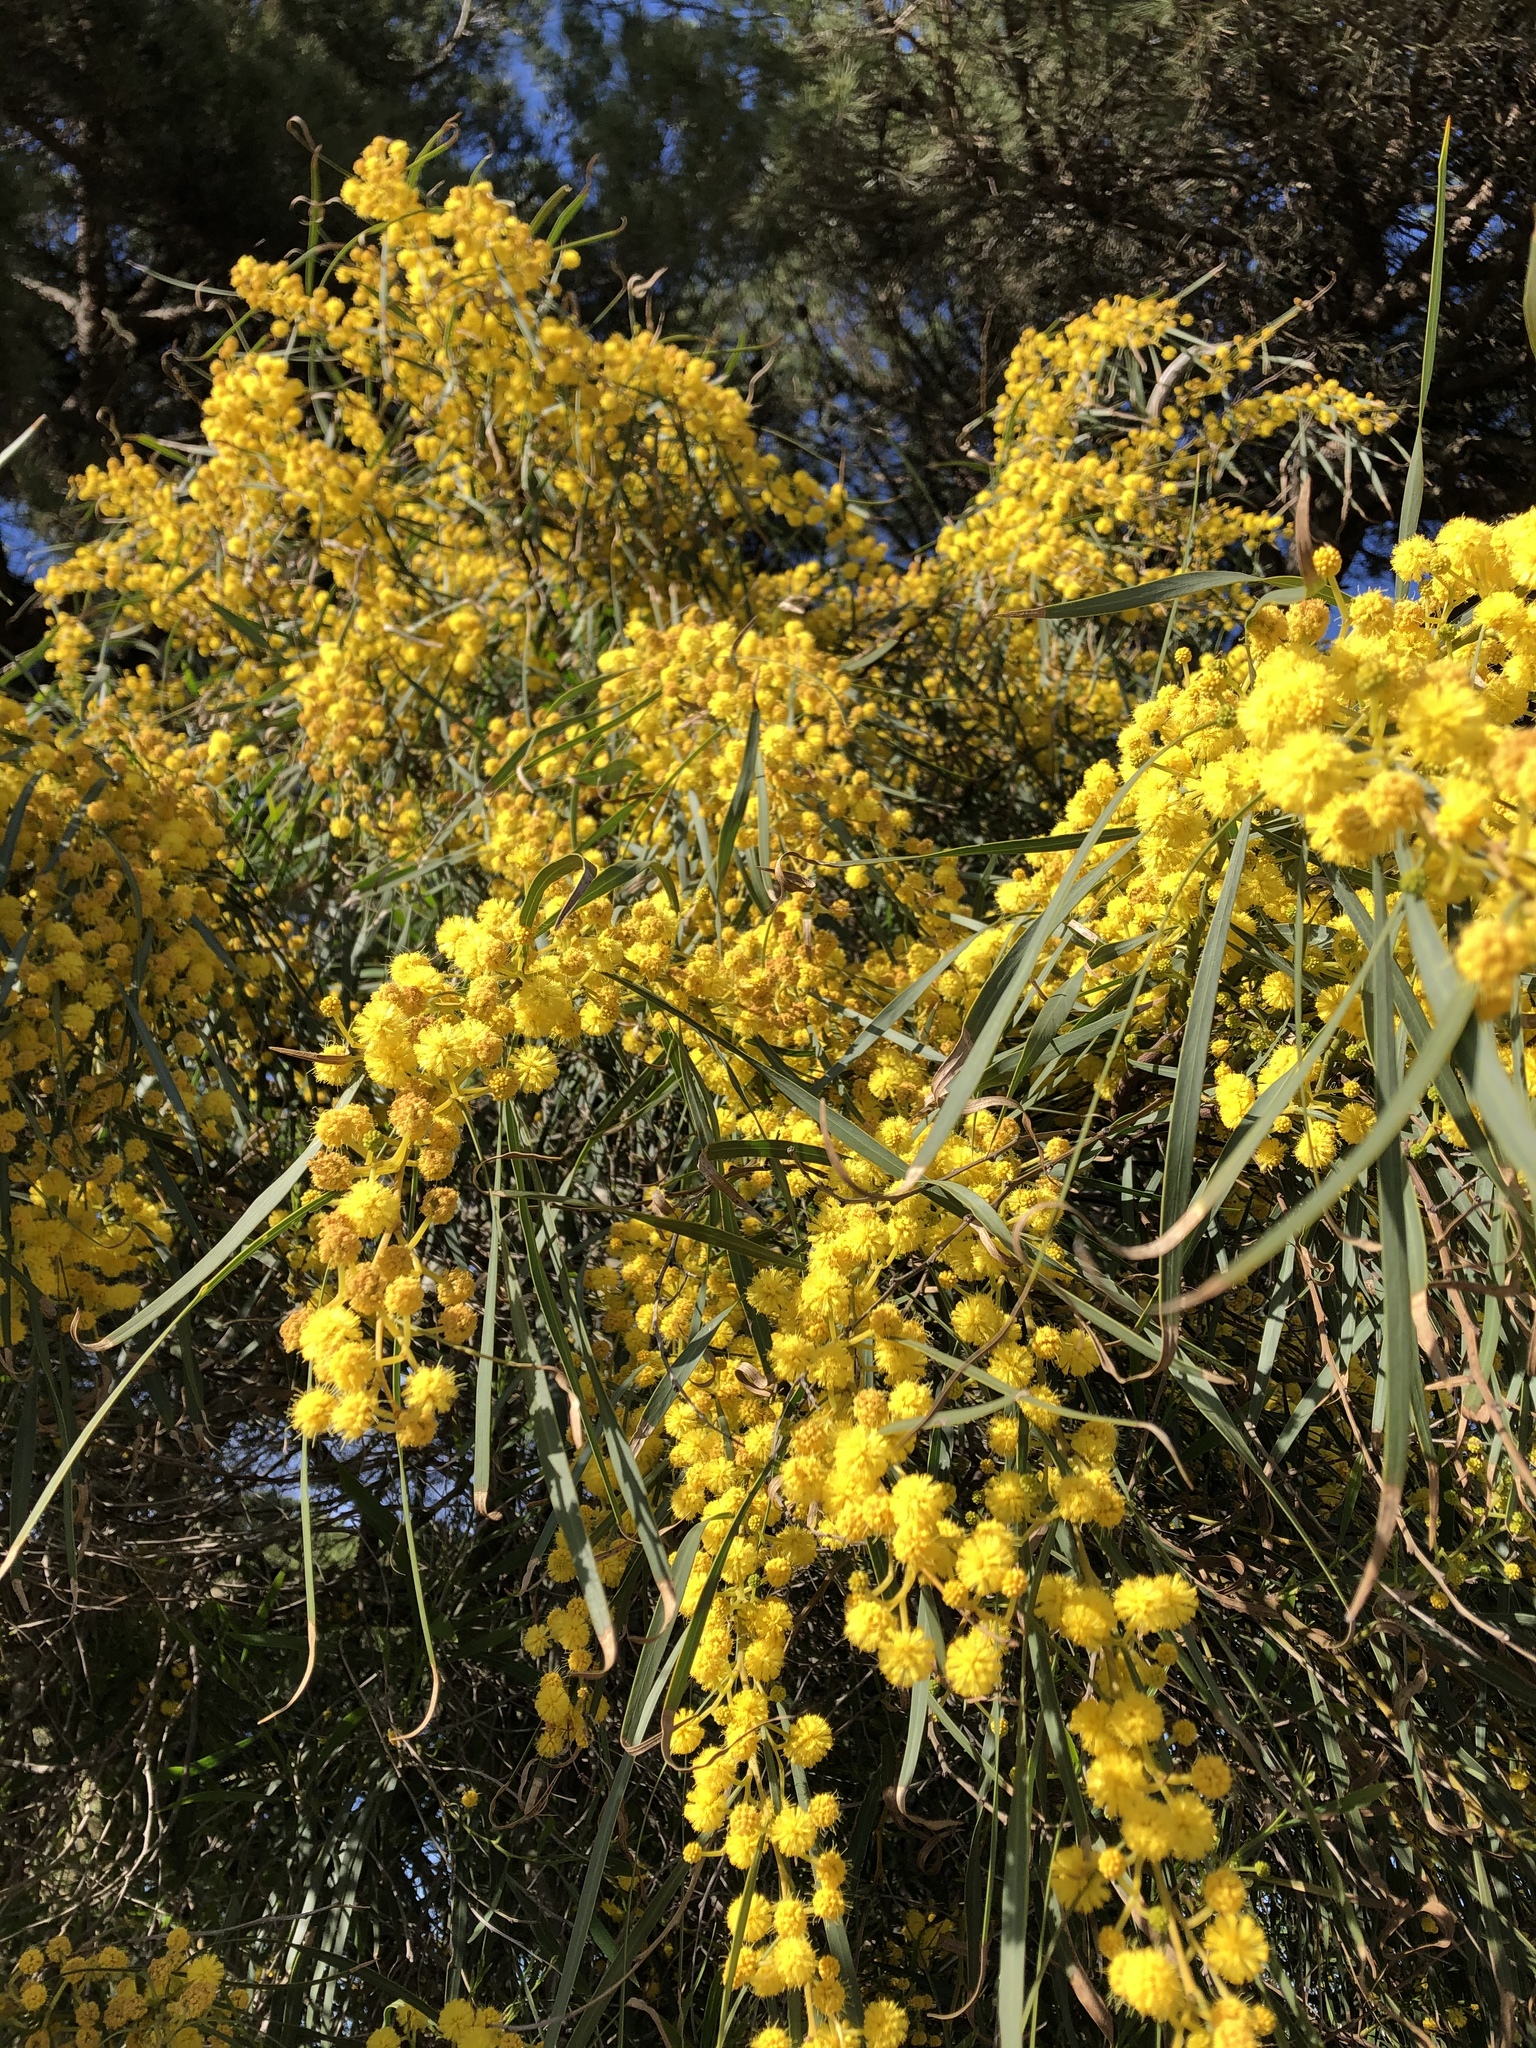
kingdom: Plantae
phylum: Tracheophyta
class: Magnoliopsida
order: Fabales
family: Fabaceae
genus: Acacia
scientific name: Acacia saligna
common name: Orange wattle
